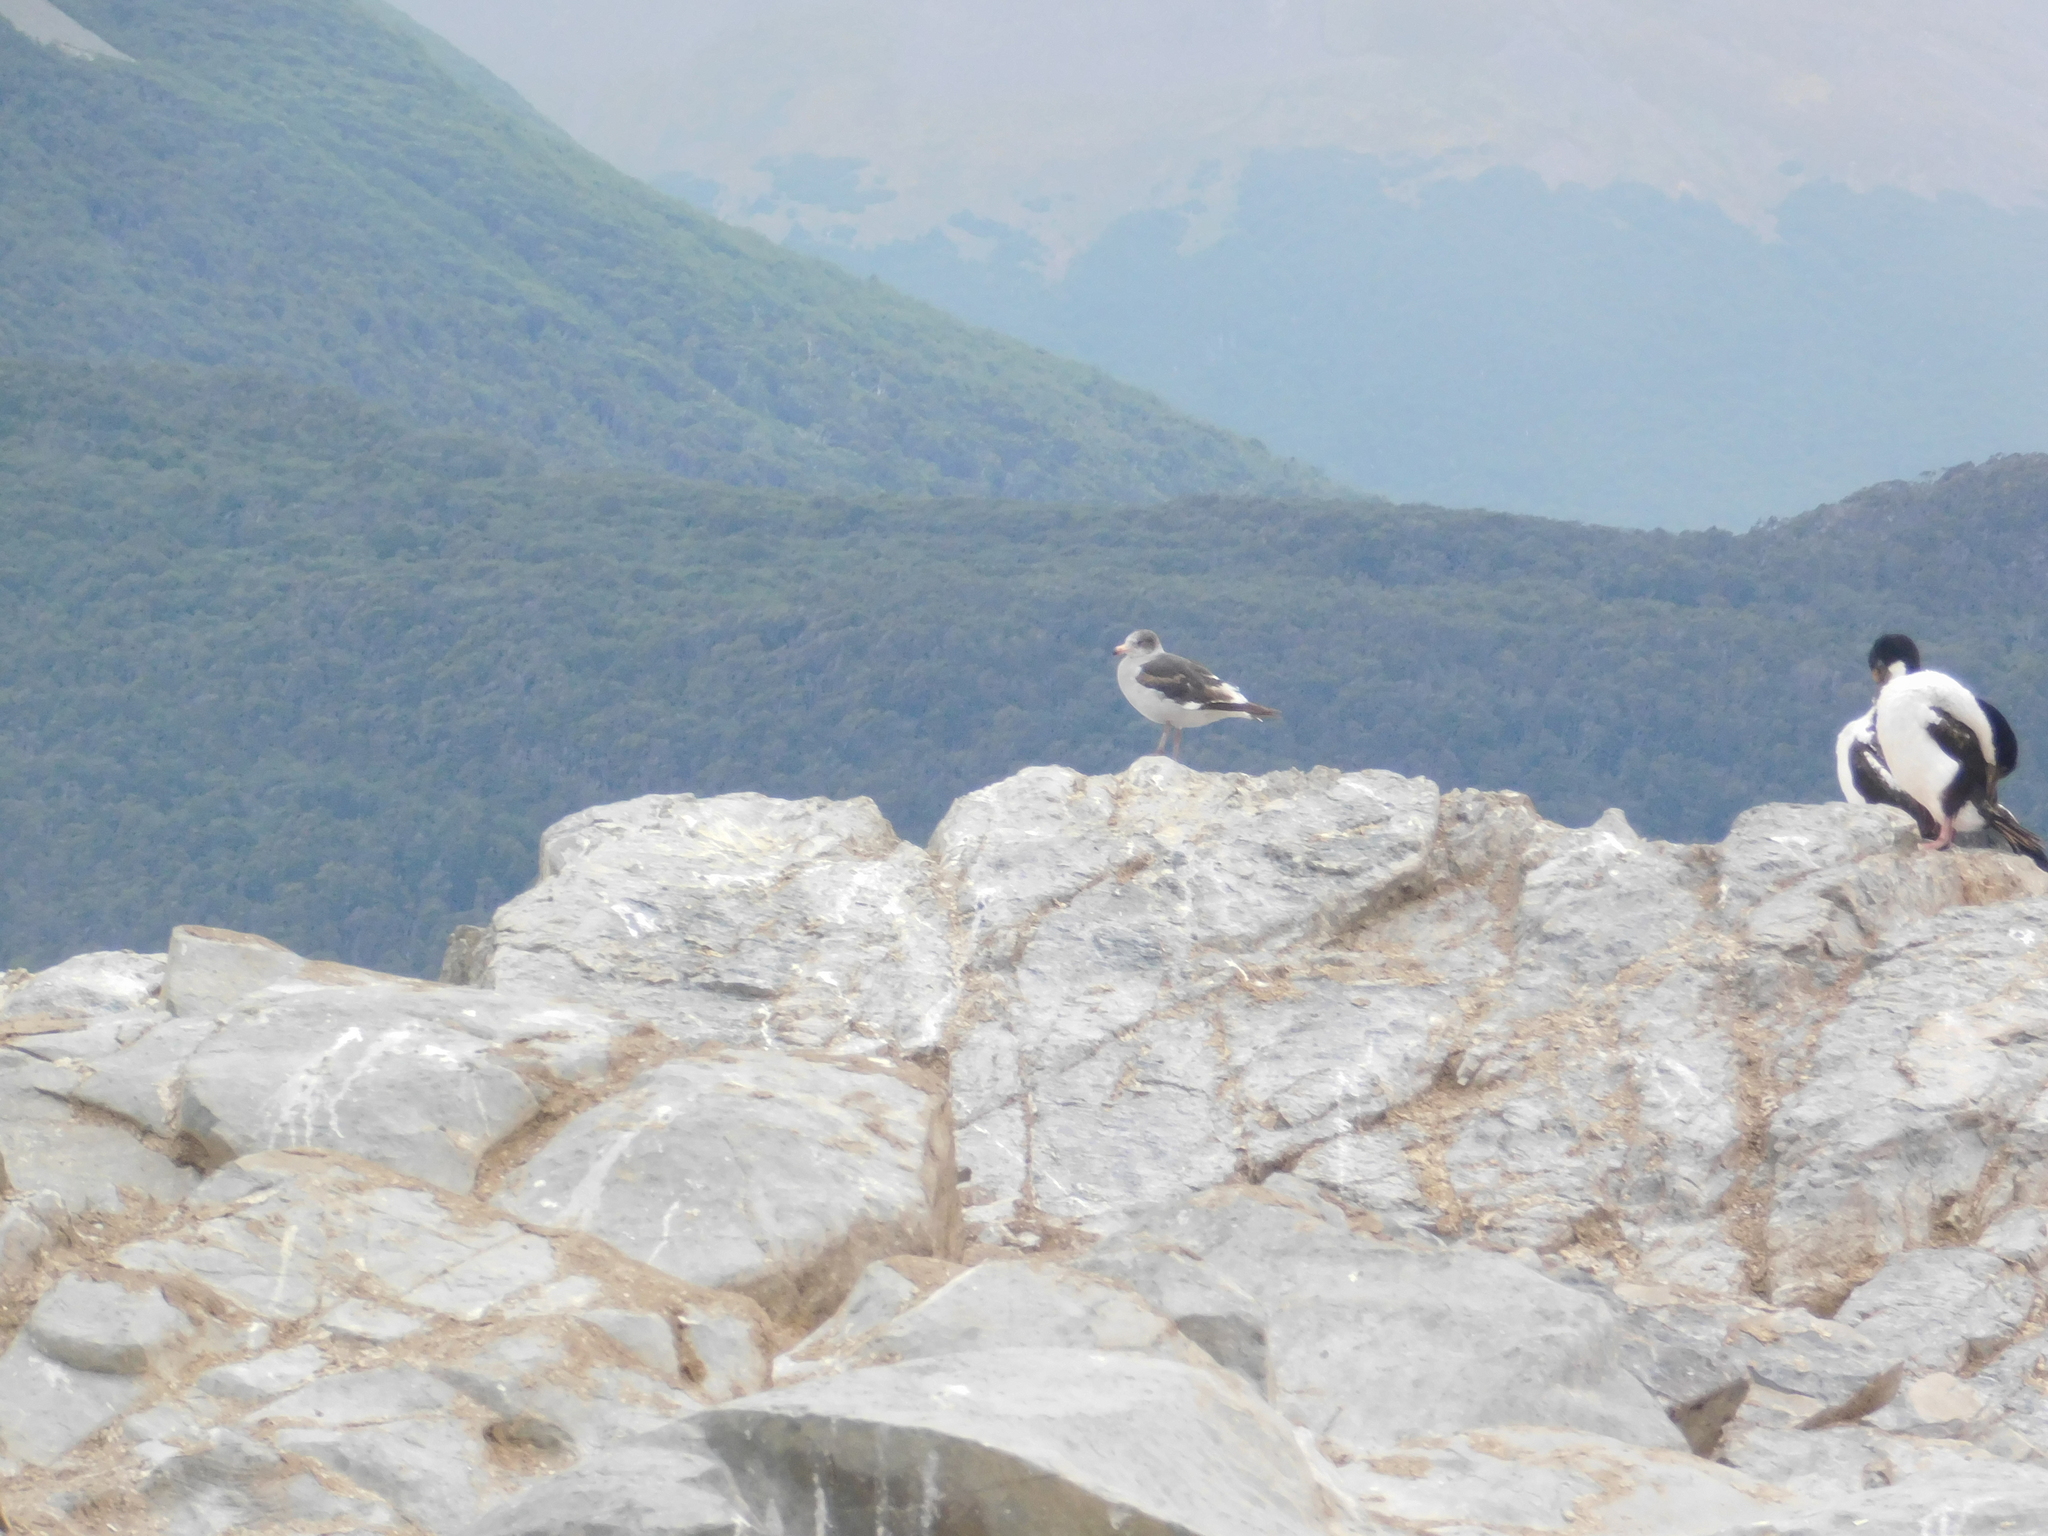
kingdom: Animalia
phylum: Chordata
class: Aves
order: Charadriiformes
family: Laridae
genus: Leucophaeus
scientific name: Leucophaeus scoresbii
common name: Dolphin gull
